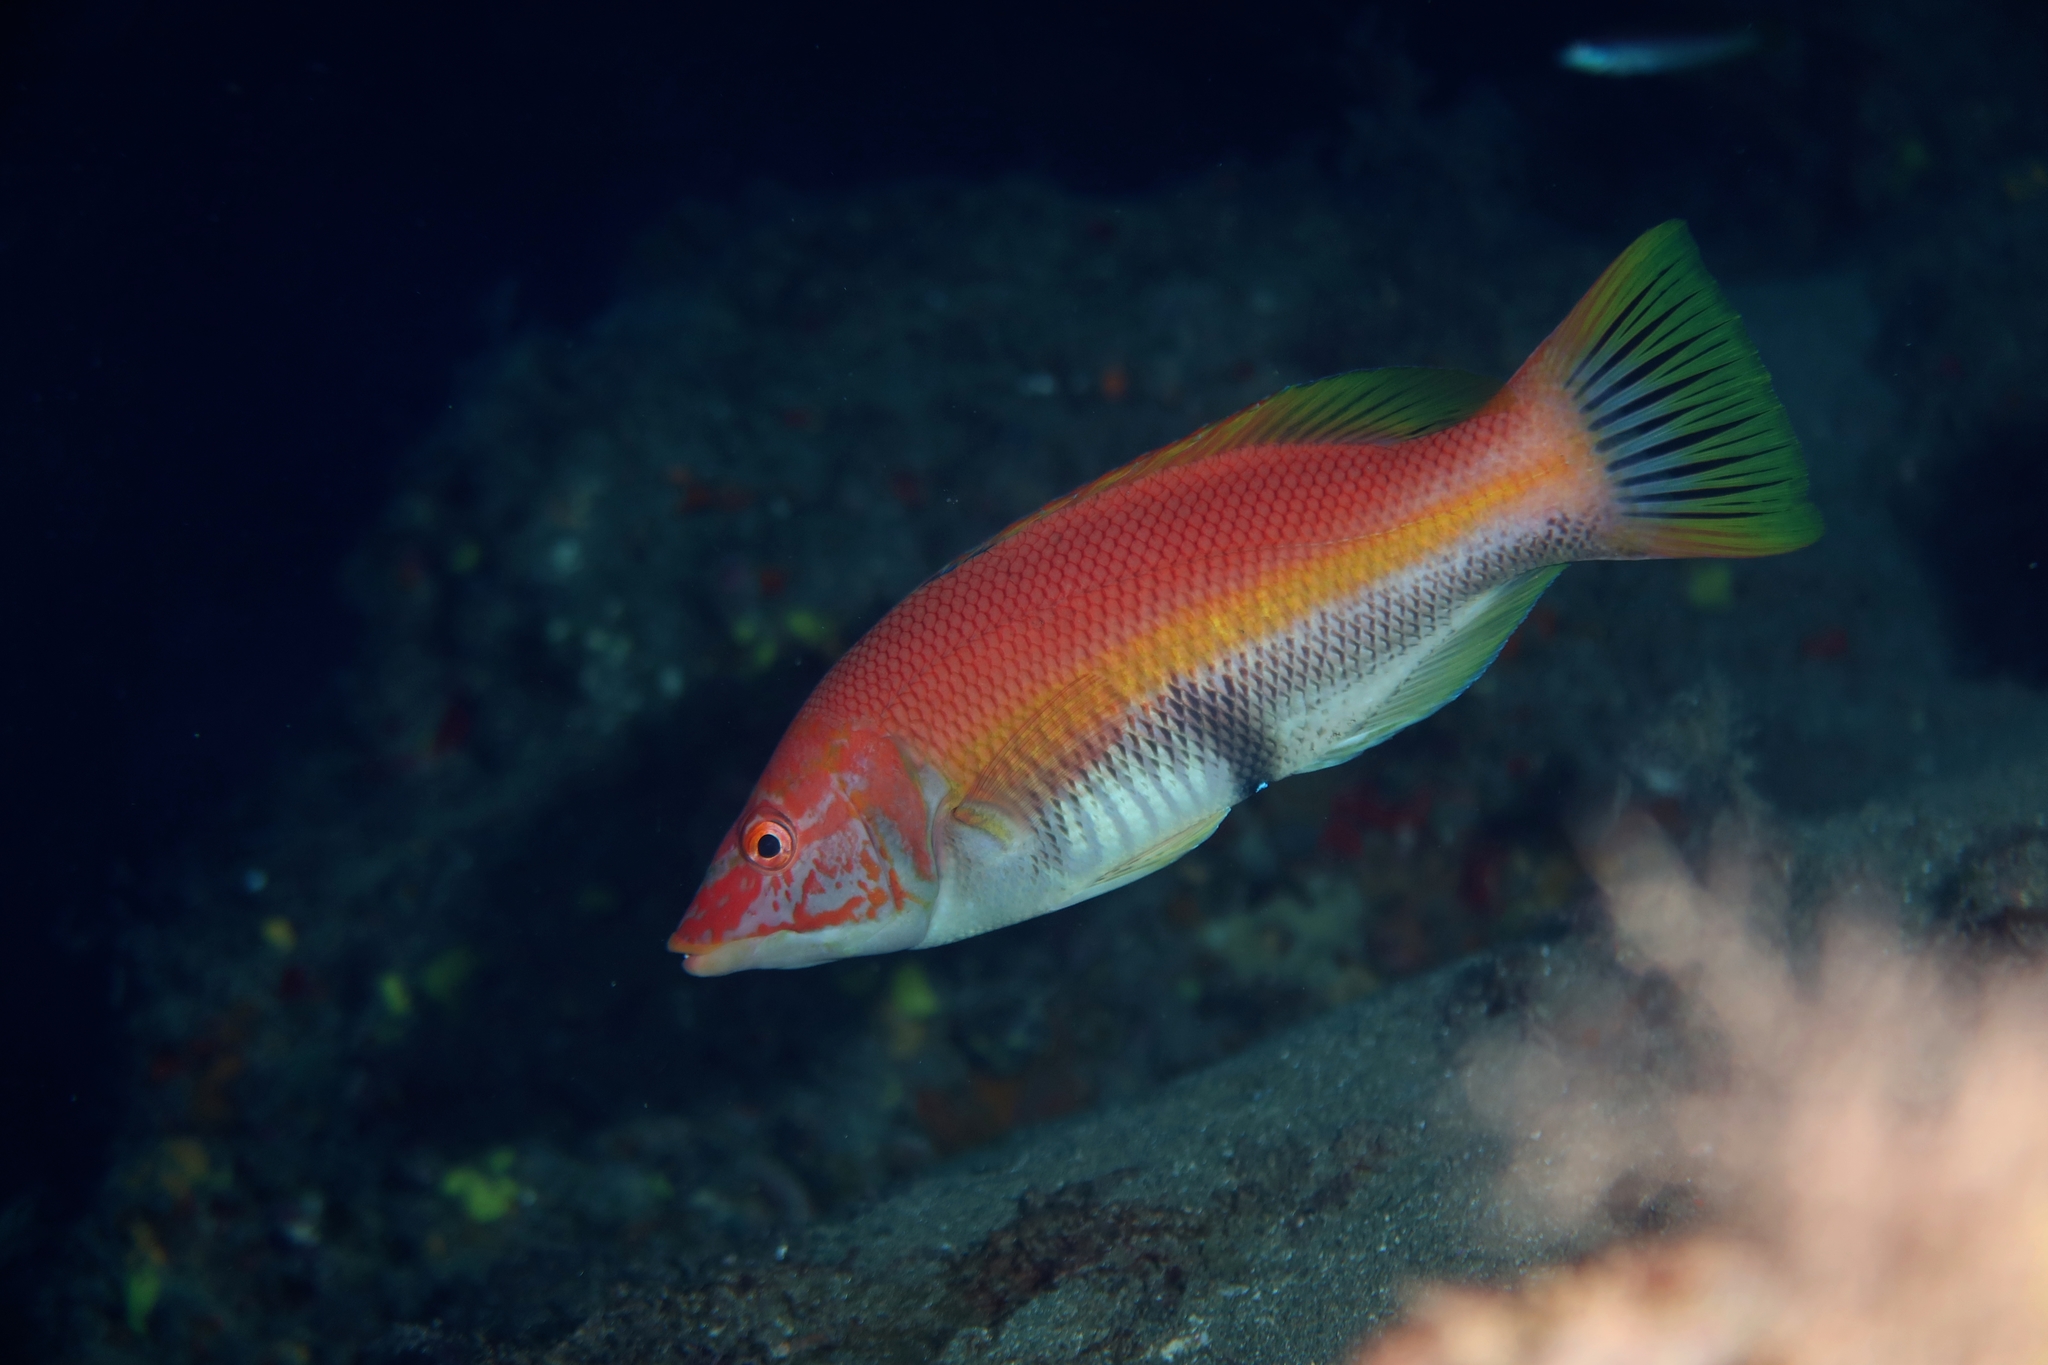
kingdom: Animalia
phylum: Chordata
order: Perciformes
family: Labridae
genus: Bodianus
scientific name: Bodianus scrofa
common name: Barred hogfish
